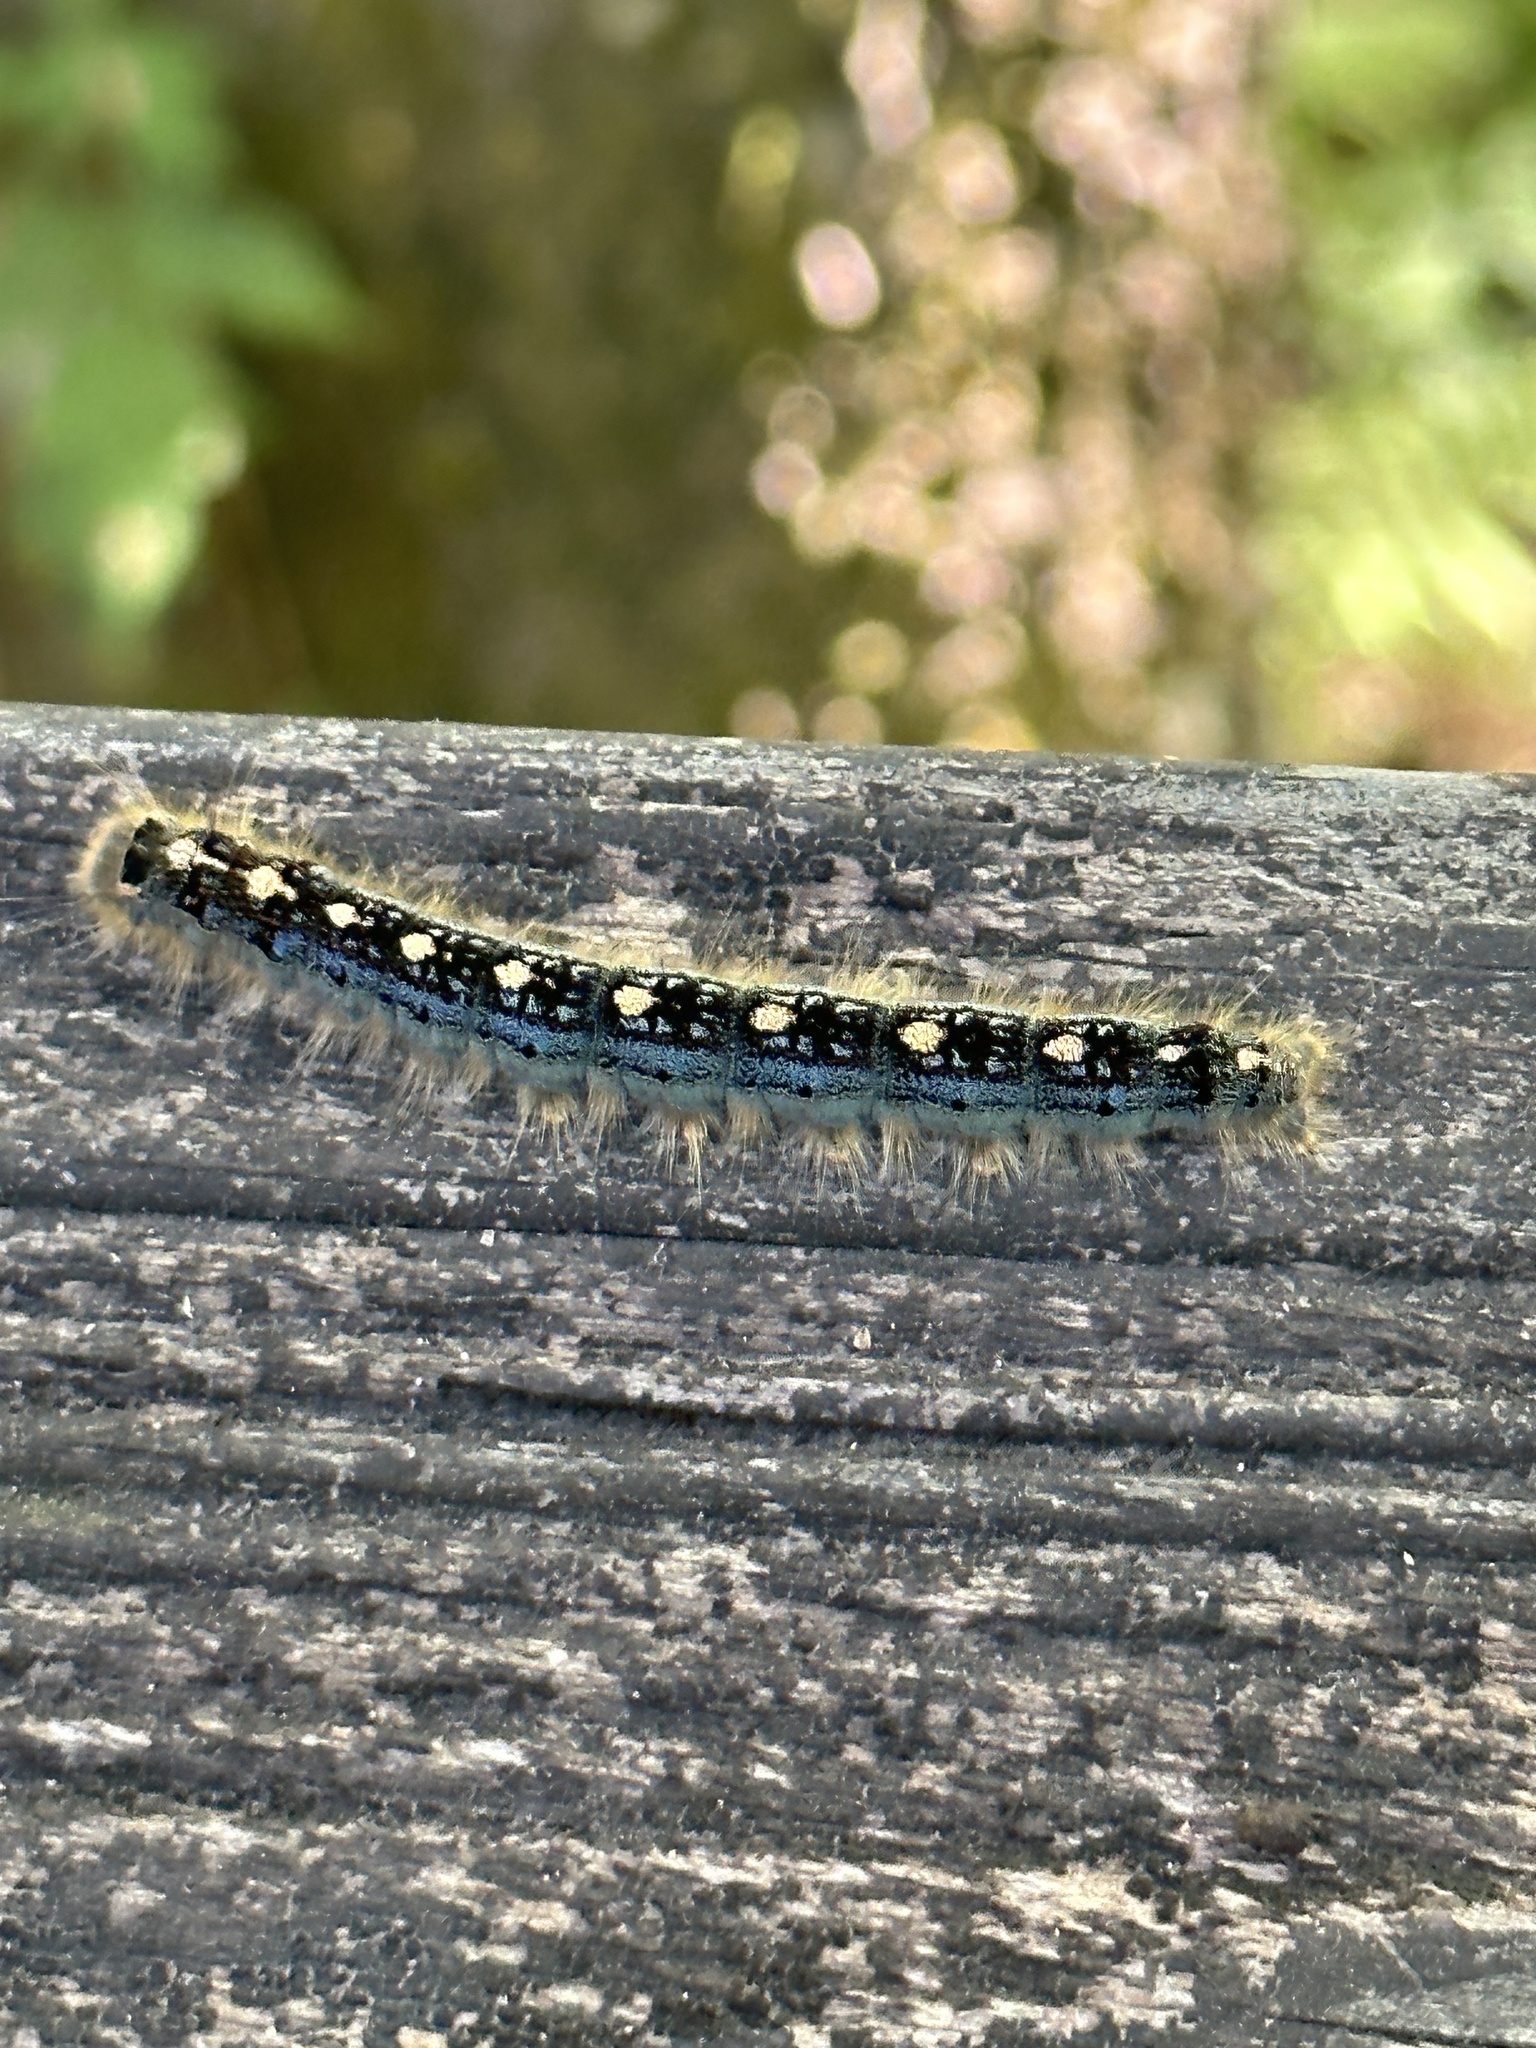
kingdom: Animalia
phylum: Arthropoda
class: Insecta
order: Lepidoptera
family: Lasiocampidae
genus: Malacosoma
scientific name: Malacosoma disstria
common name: Forest tent caterpillar
